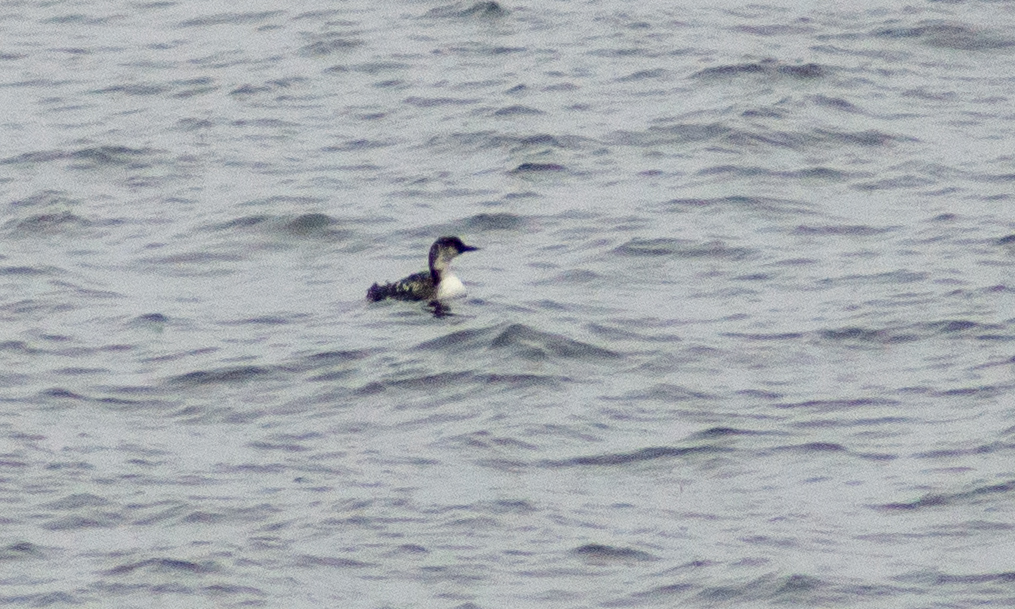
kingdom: Animalia
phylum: Chordata
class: Aves
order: Charadriiformes
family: Alcidae
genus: Uria
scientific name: Uria aalge
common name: Common murre
